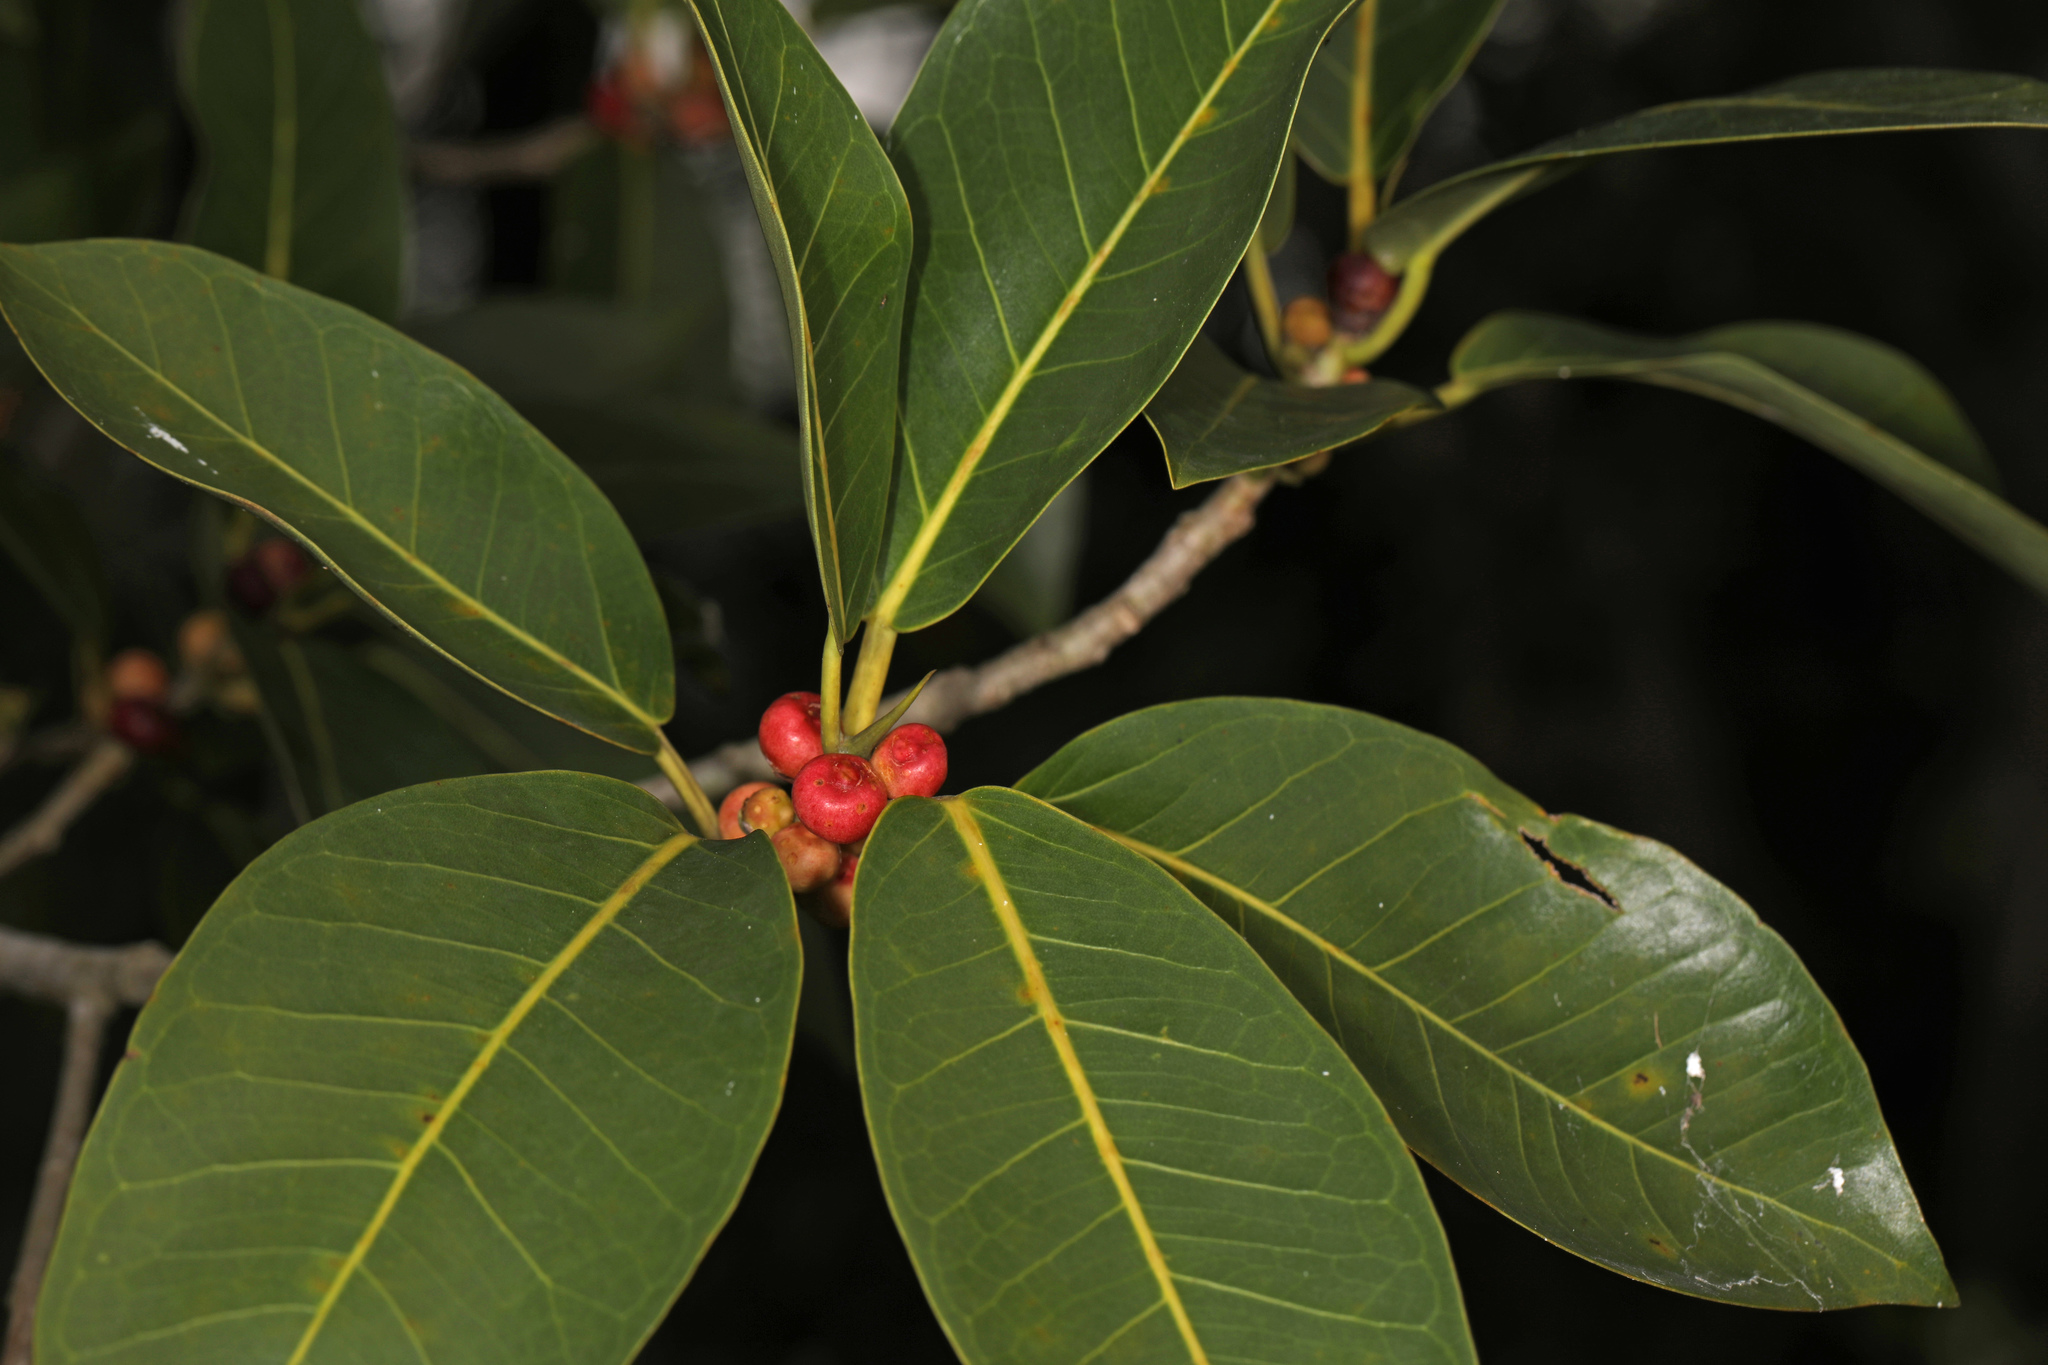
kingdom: Plantae
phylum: Tracheophyta
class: Magnoliopsida
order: Rosales
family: Moraceae
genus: Ficus
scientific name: Ficus aurea
